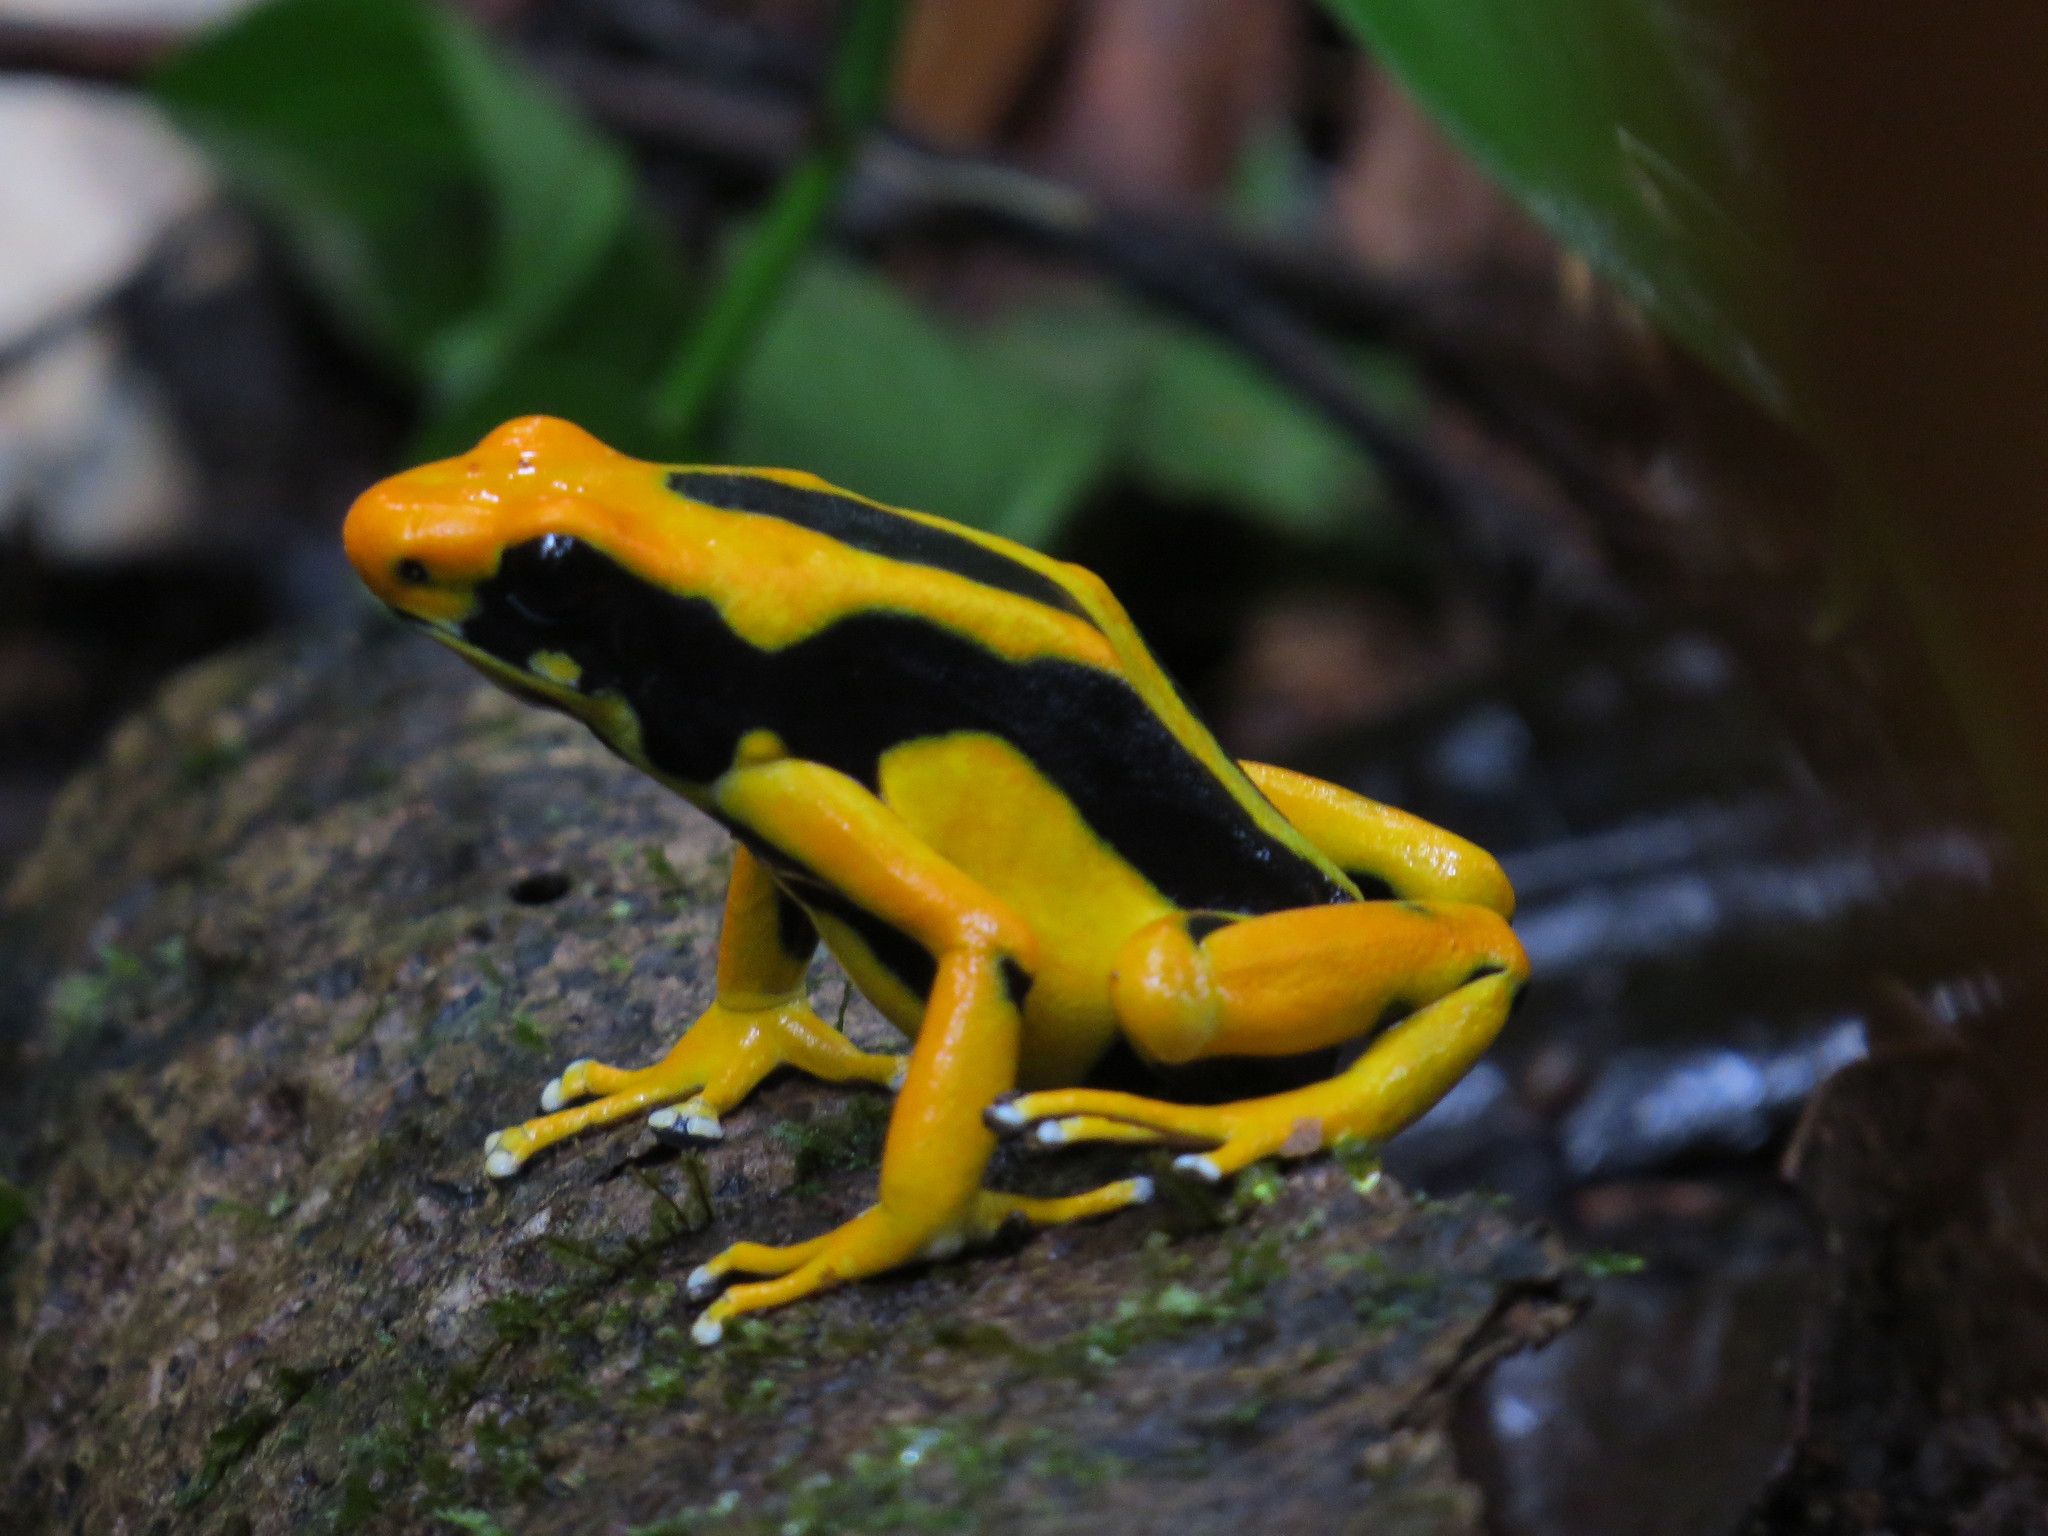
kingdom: Animalia
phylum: Chordata
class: Amphibia
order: Anura
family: Dendrobatidae
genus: Dendrobates
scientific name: Dendrobates tinctorius
